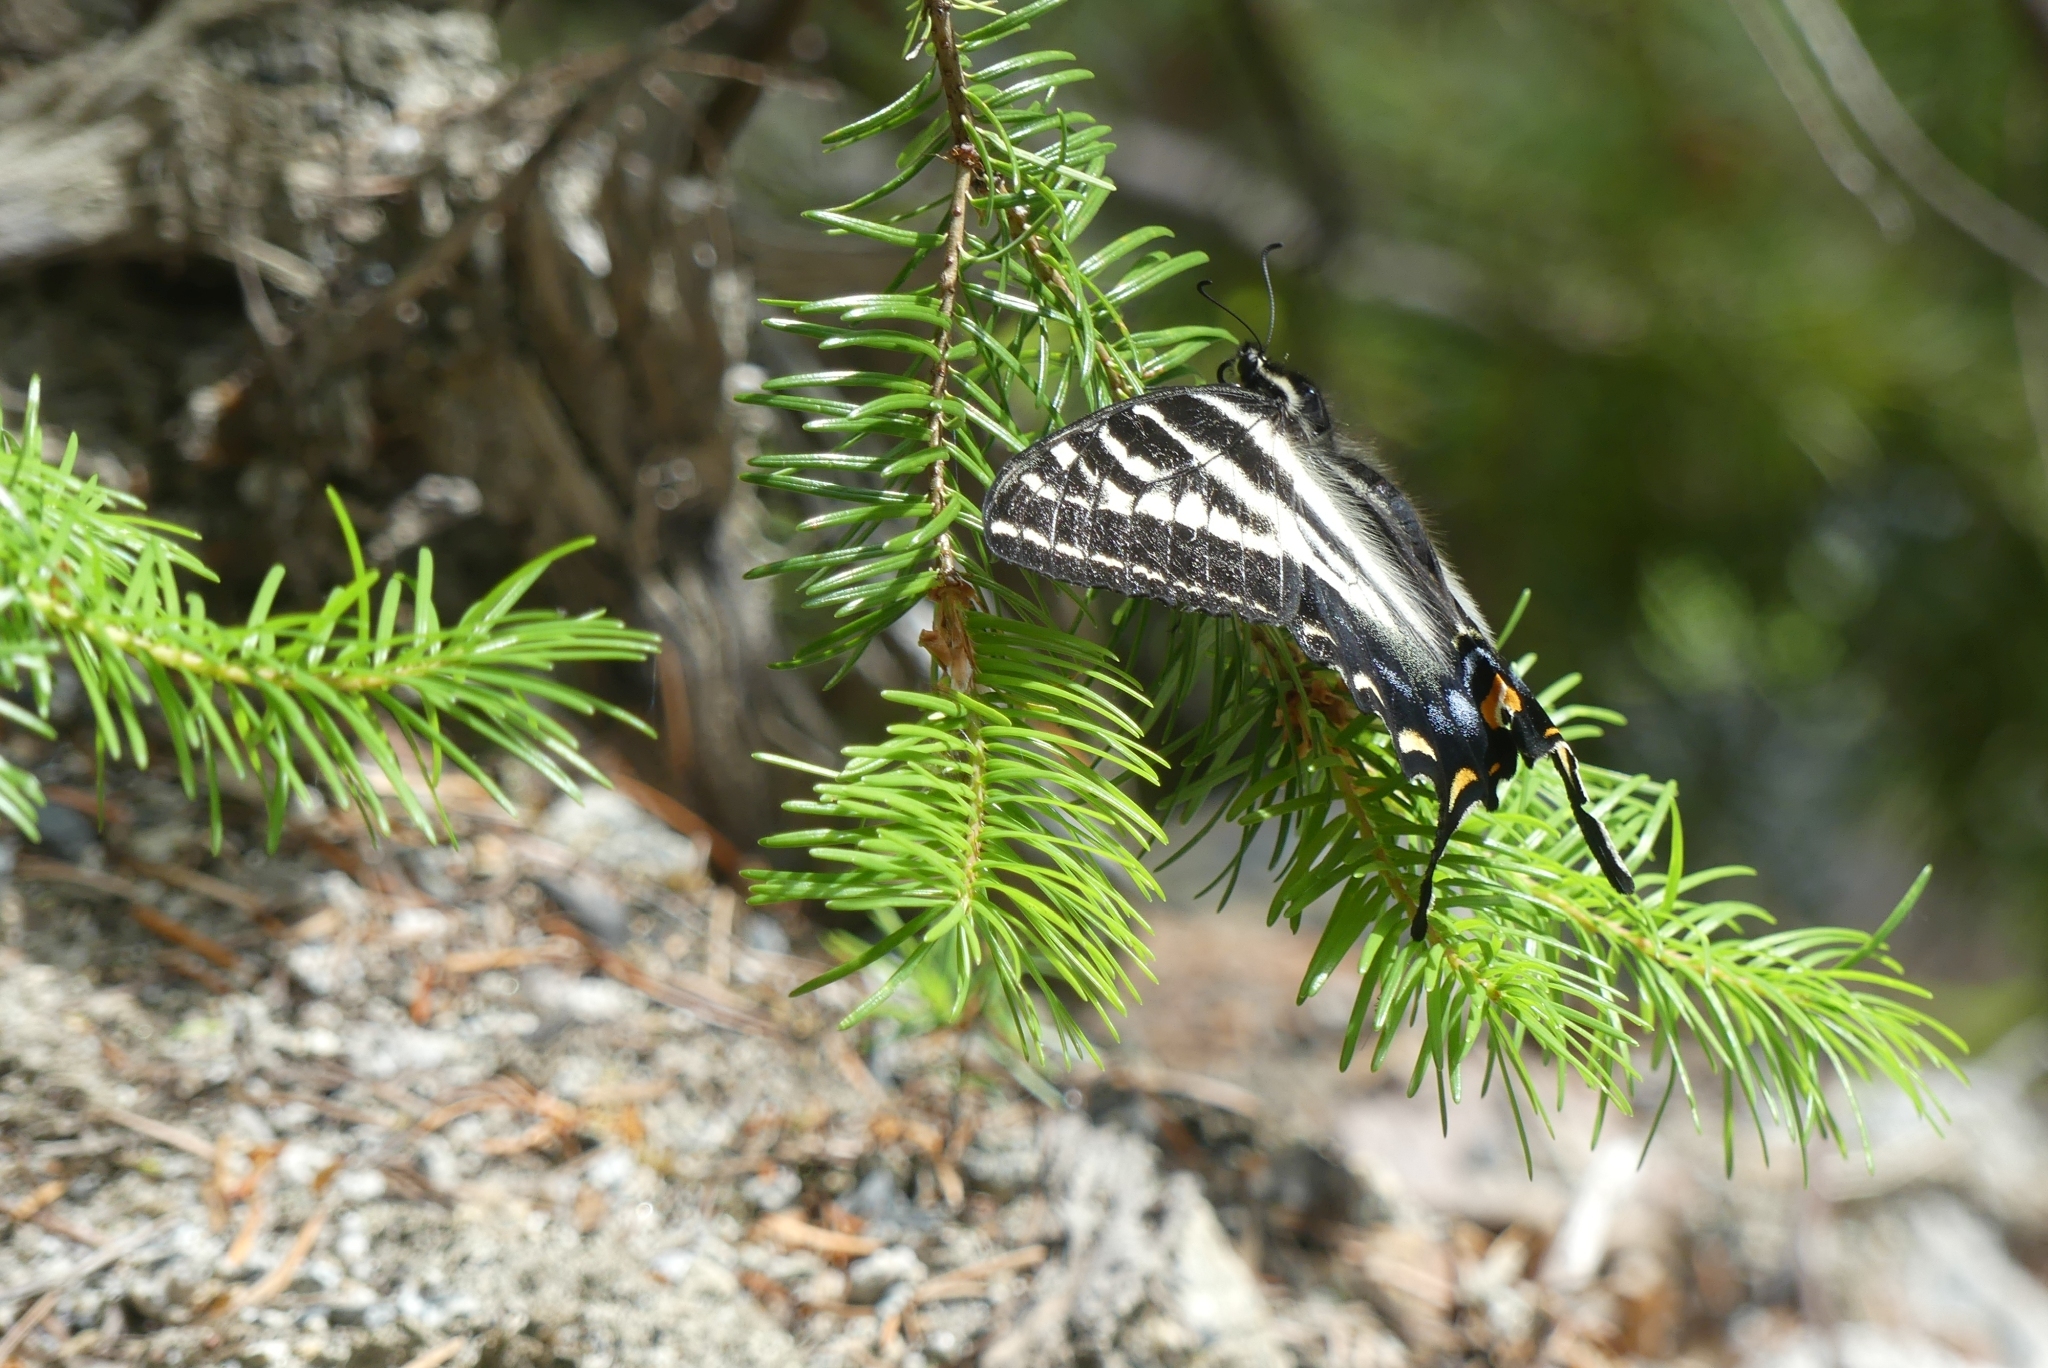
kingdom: Animalia
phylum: Arthropoda
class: Insecta
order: Lepidoptera
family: Papilionidae
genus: Papilio
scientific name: Papilio eurymedon
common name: Pale tiger swallowtail
